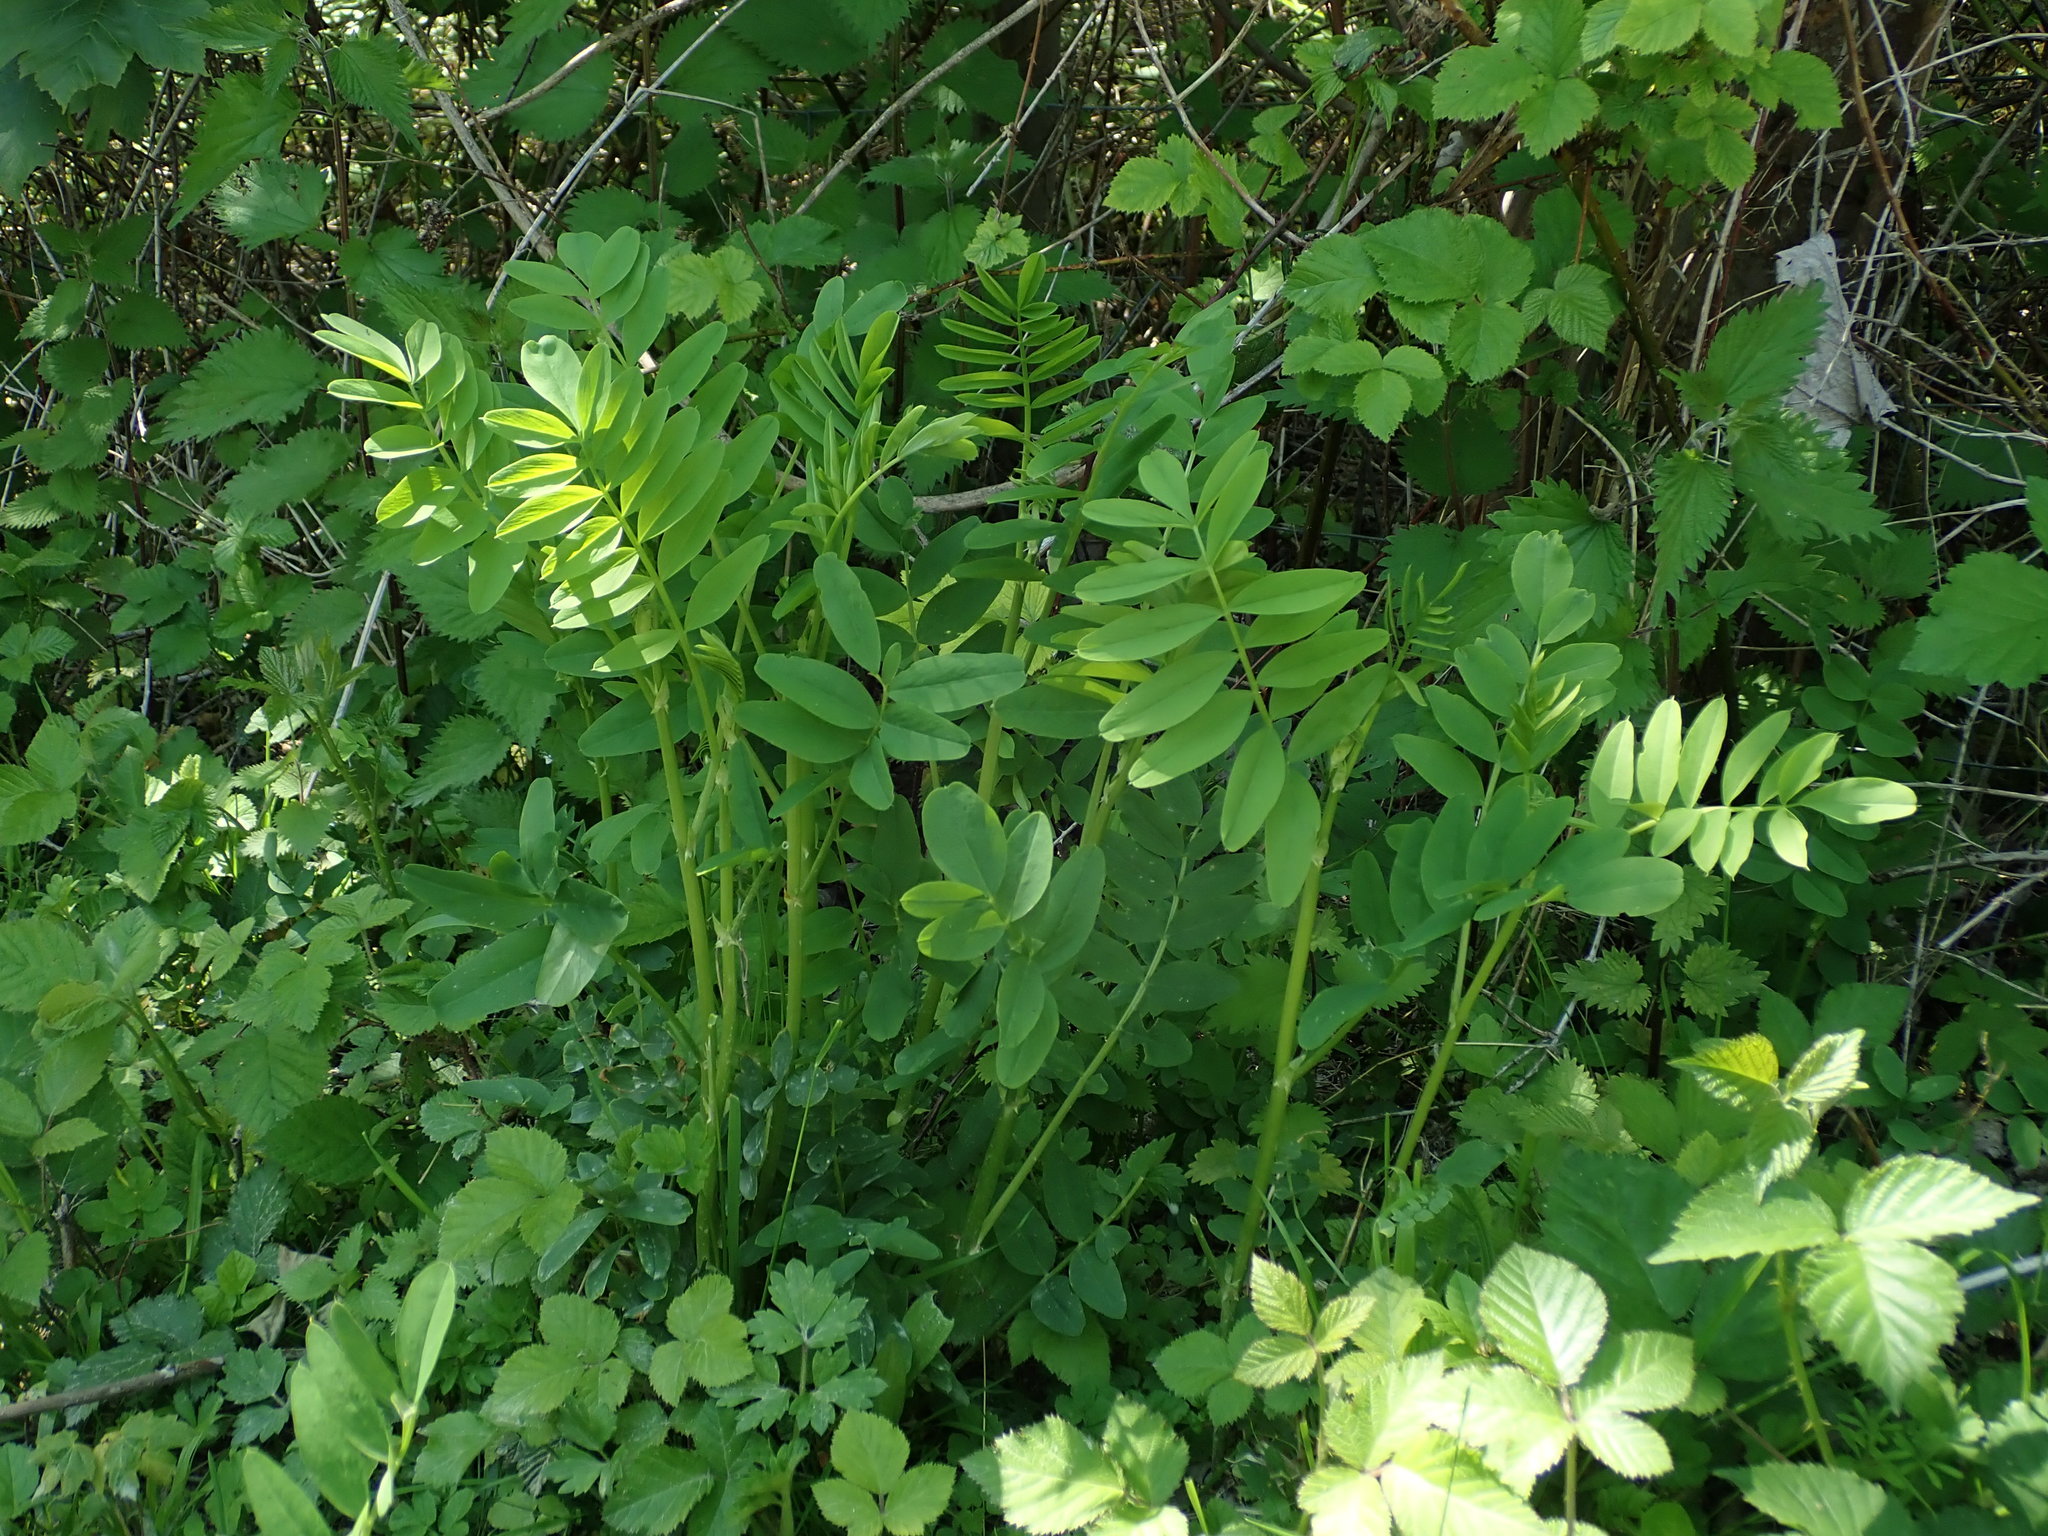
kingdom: Plantae
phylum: Tracheophyta
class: Magnoliopsida
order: Fabales
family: Fabaceae
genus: Galega
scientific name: Galega officinalis
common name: Goat's-rue
